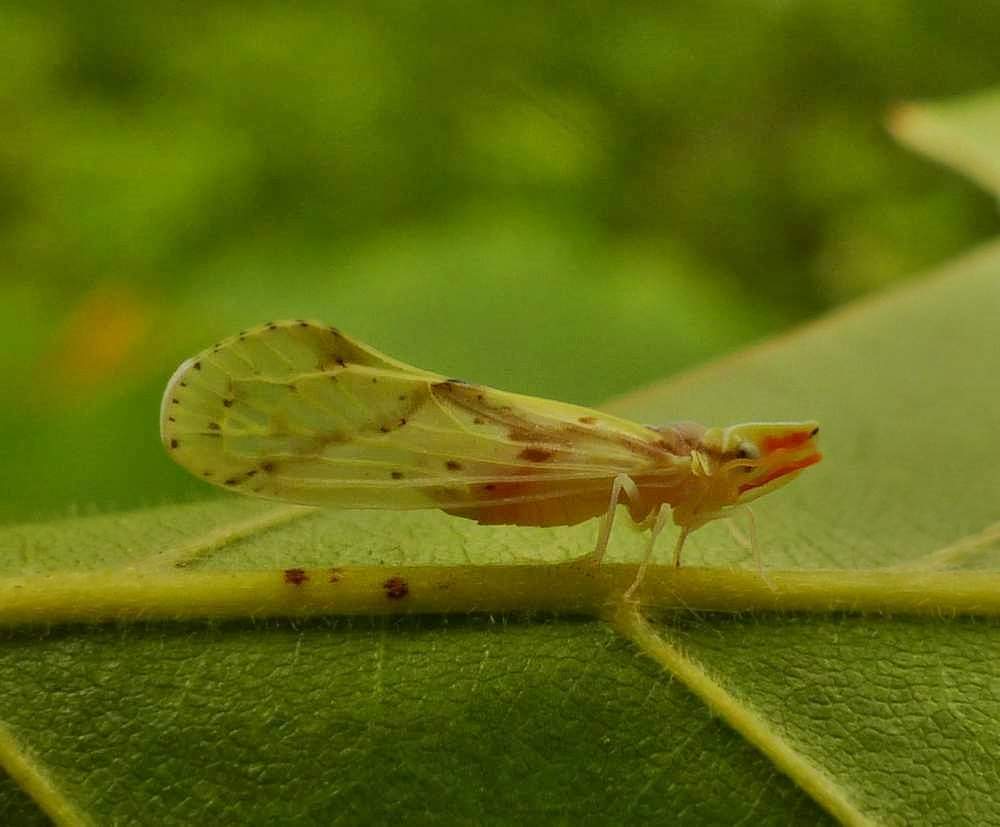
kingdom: Animalia
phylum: Arthropoda
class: Insecta
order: Hemiptera
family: Derbidae
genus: Otiocerus
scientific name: Otiocerus wolfii
